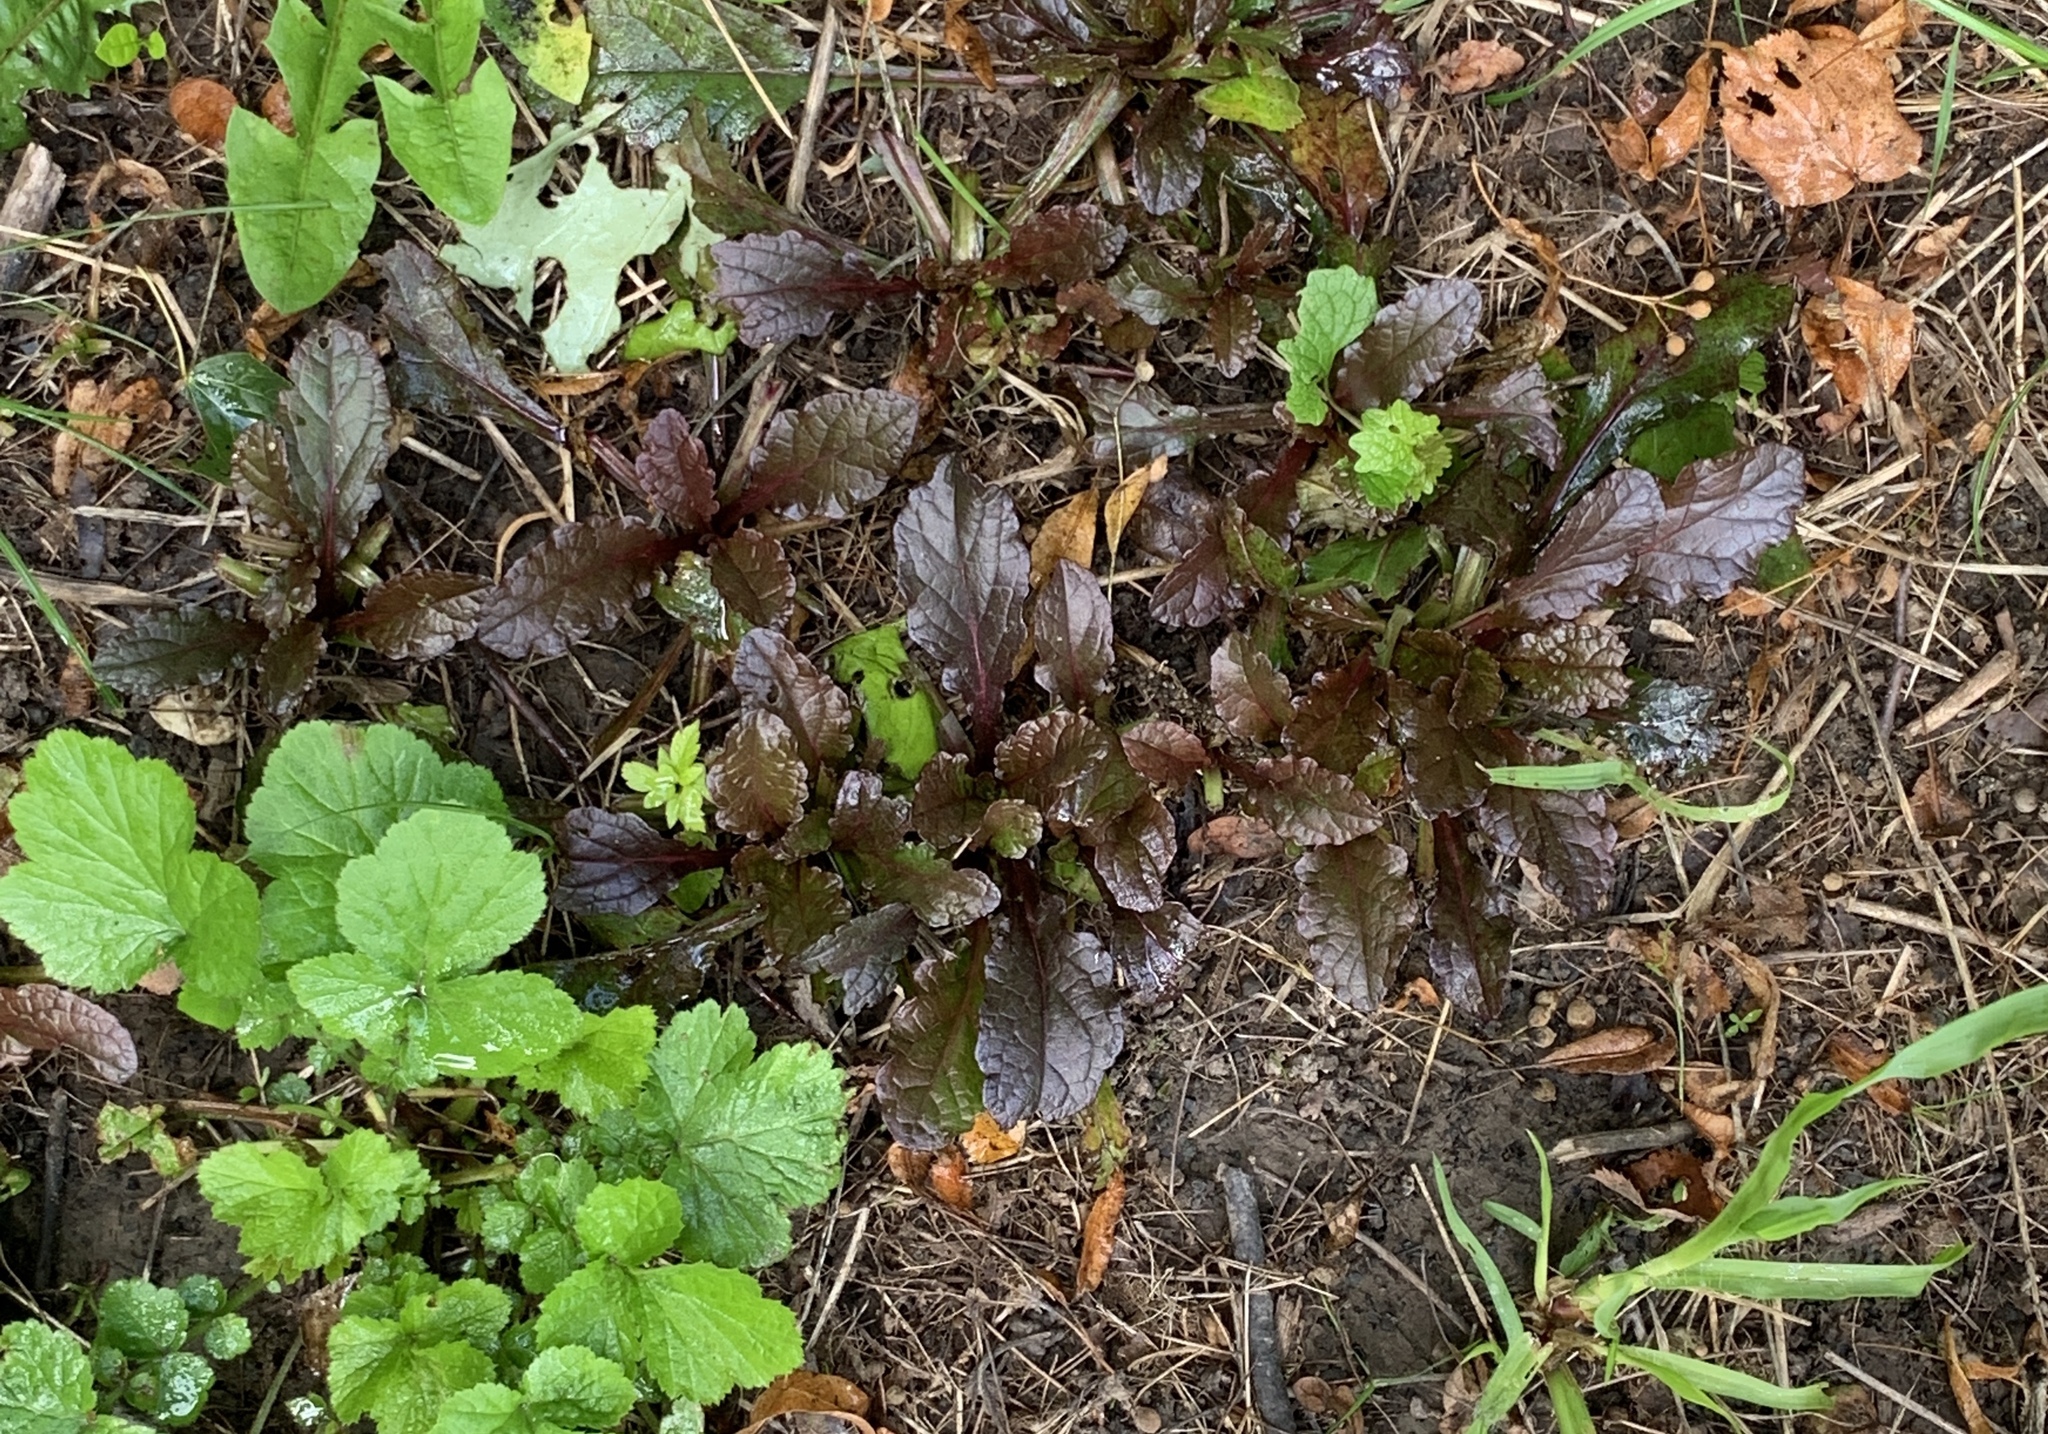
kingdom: Plantae
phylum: Tracheophyta
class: Magnoliopsida
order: Lamiales
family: Lamiaceae
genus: Ajuga
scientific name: Ajuga reptans
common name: Bugle
